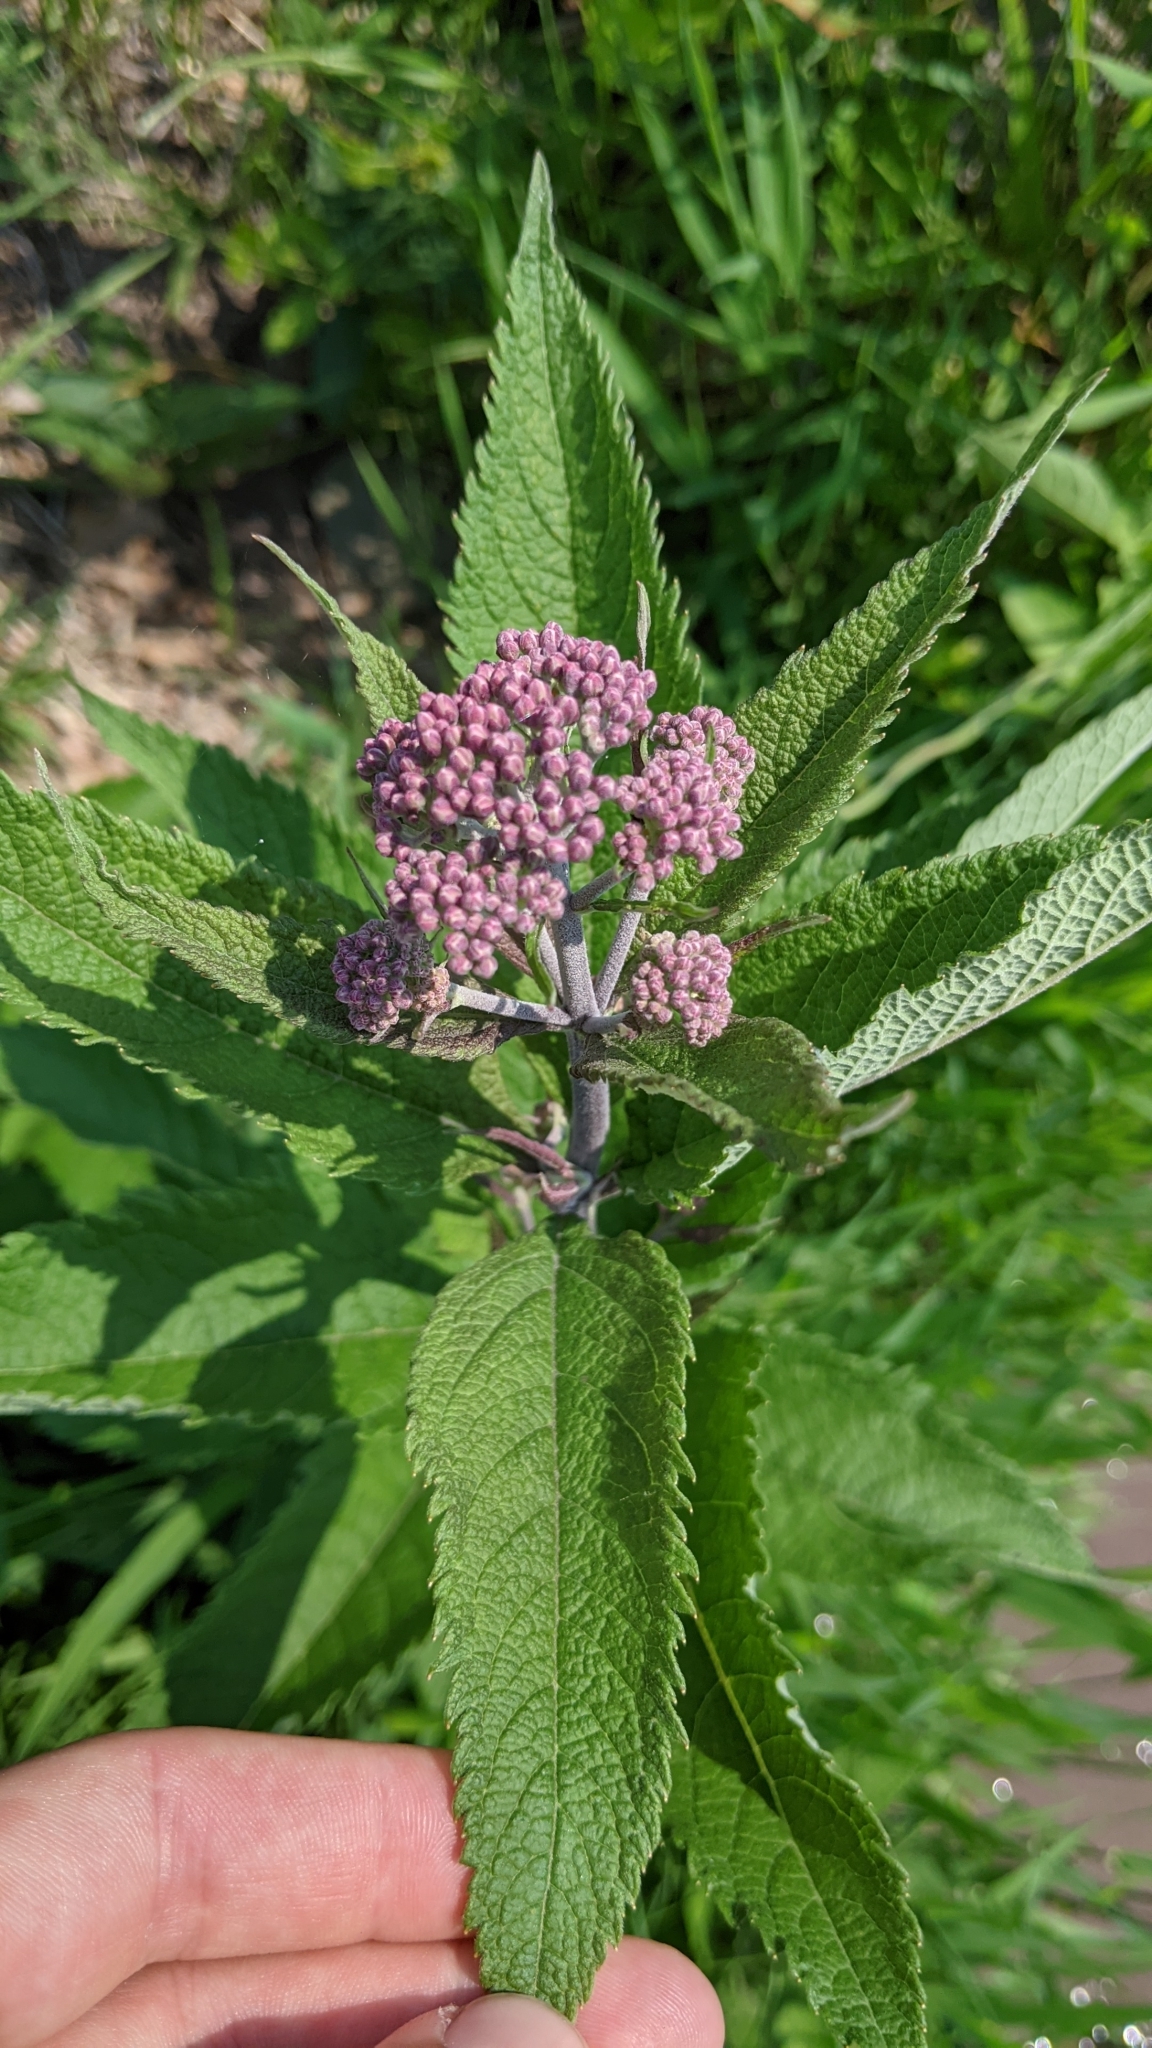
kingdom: Plantae
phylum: Tracheophyta
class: Magnoliopsida
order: Asterales
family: Asteraceae
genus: Eutrochium
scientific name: Eutrochium maculatum
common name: Spotted joe pye weed
